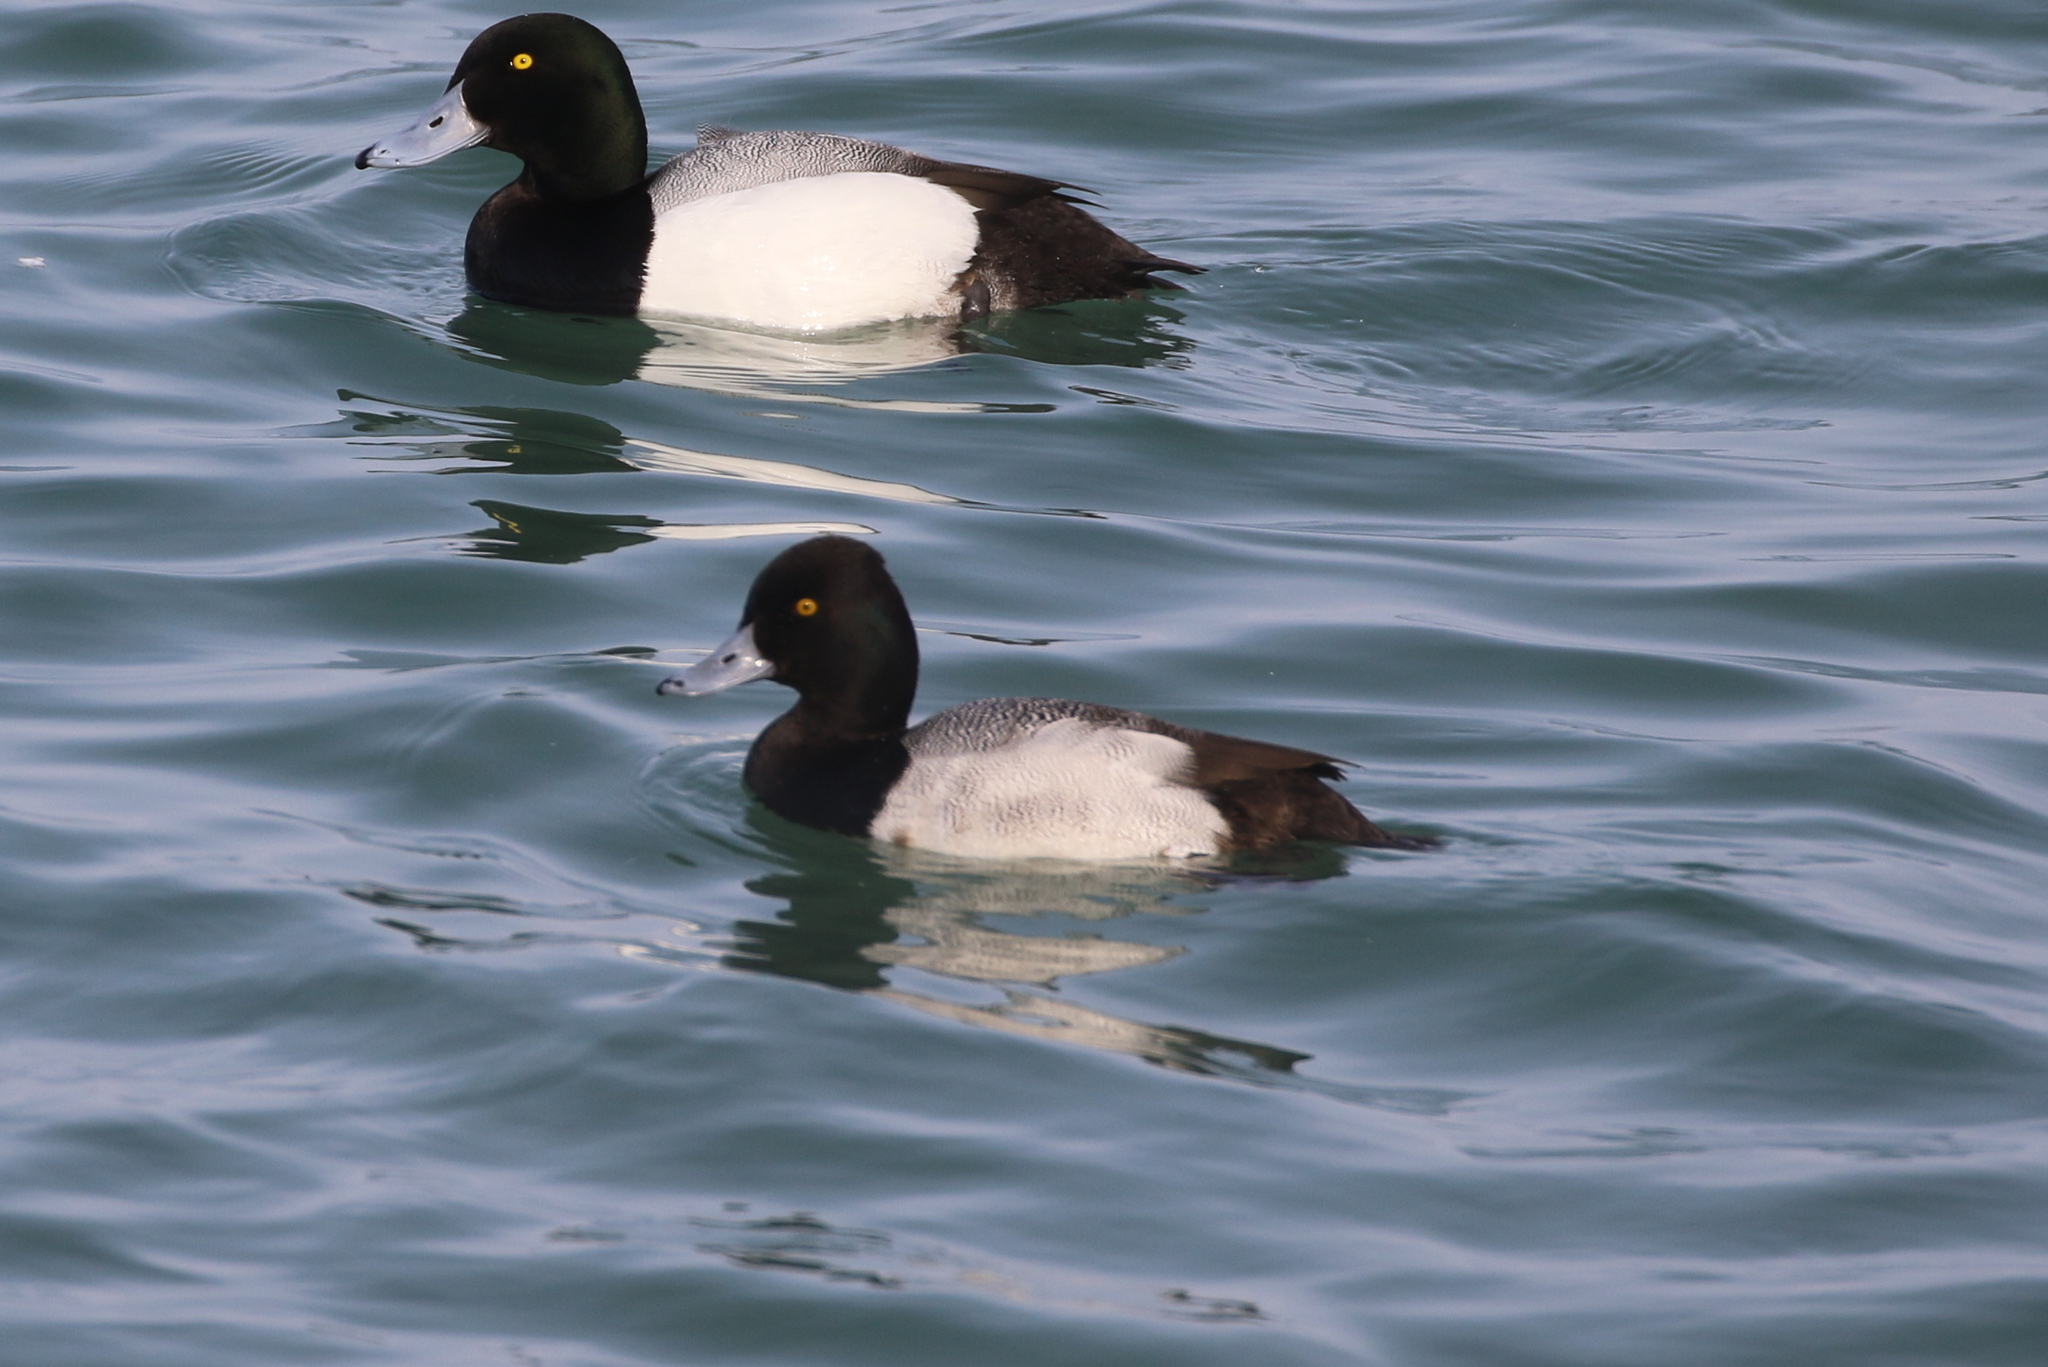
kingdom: Animalia
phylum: Chordata
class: Aves
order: Anseriformes
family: Anatidae
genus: Aythya
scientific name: Aythya affinis
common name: Lesser scaup
